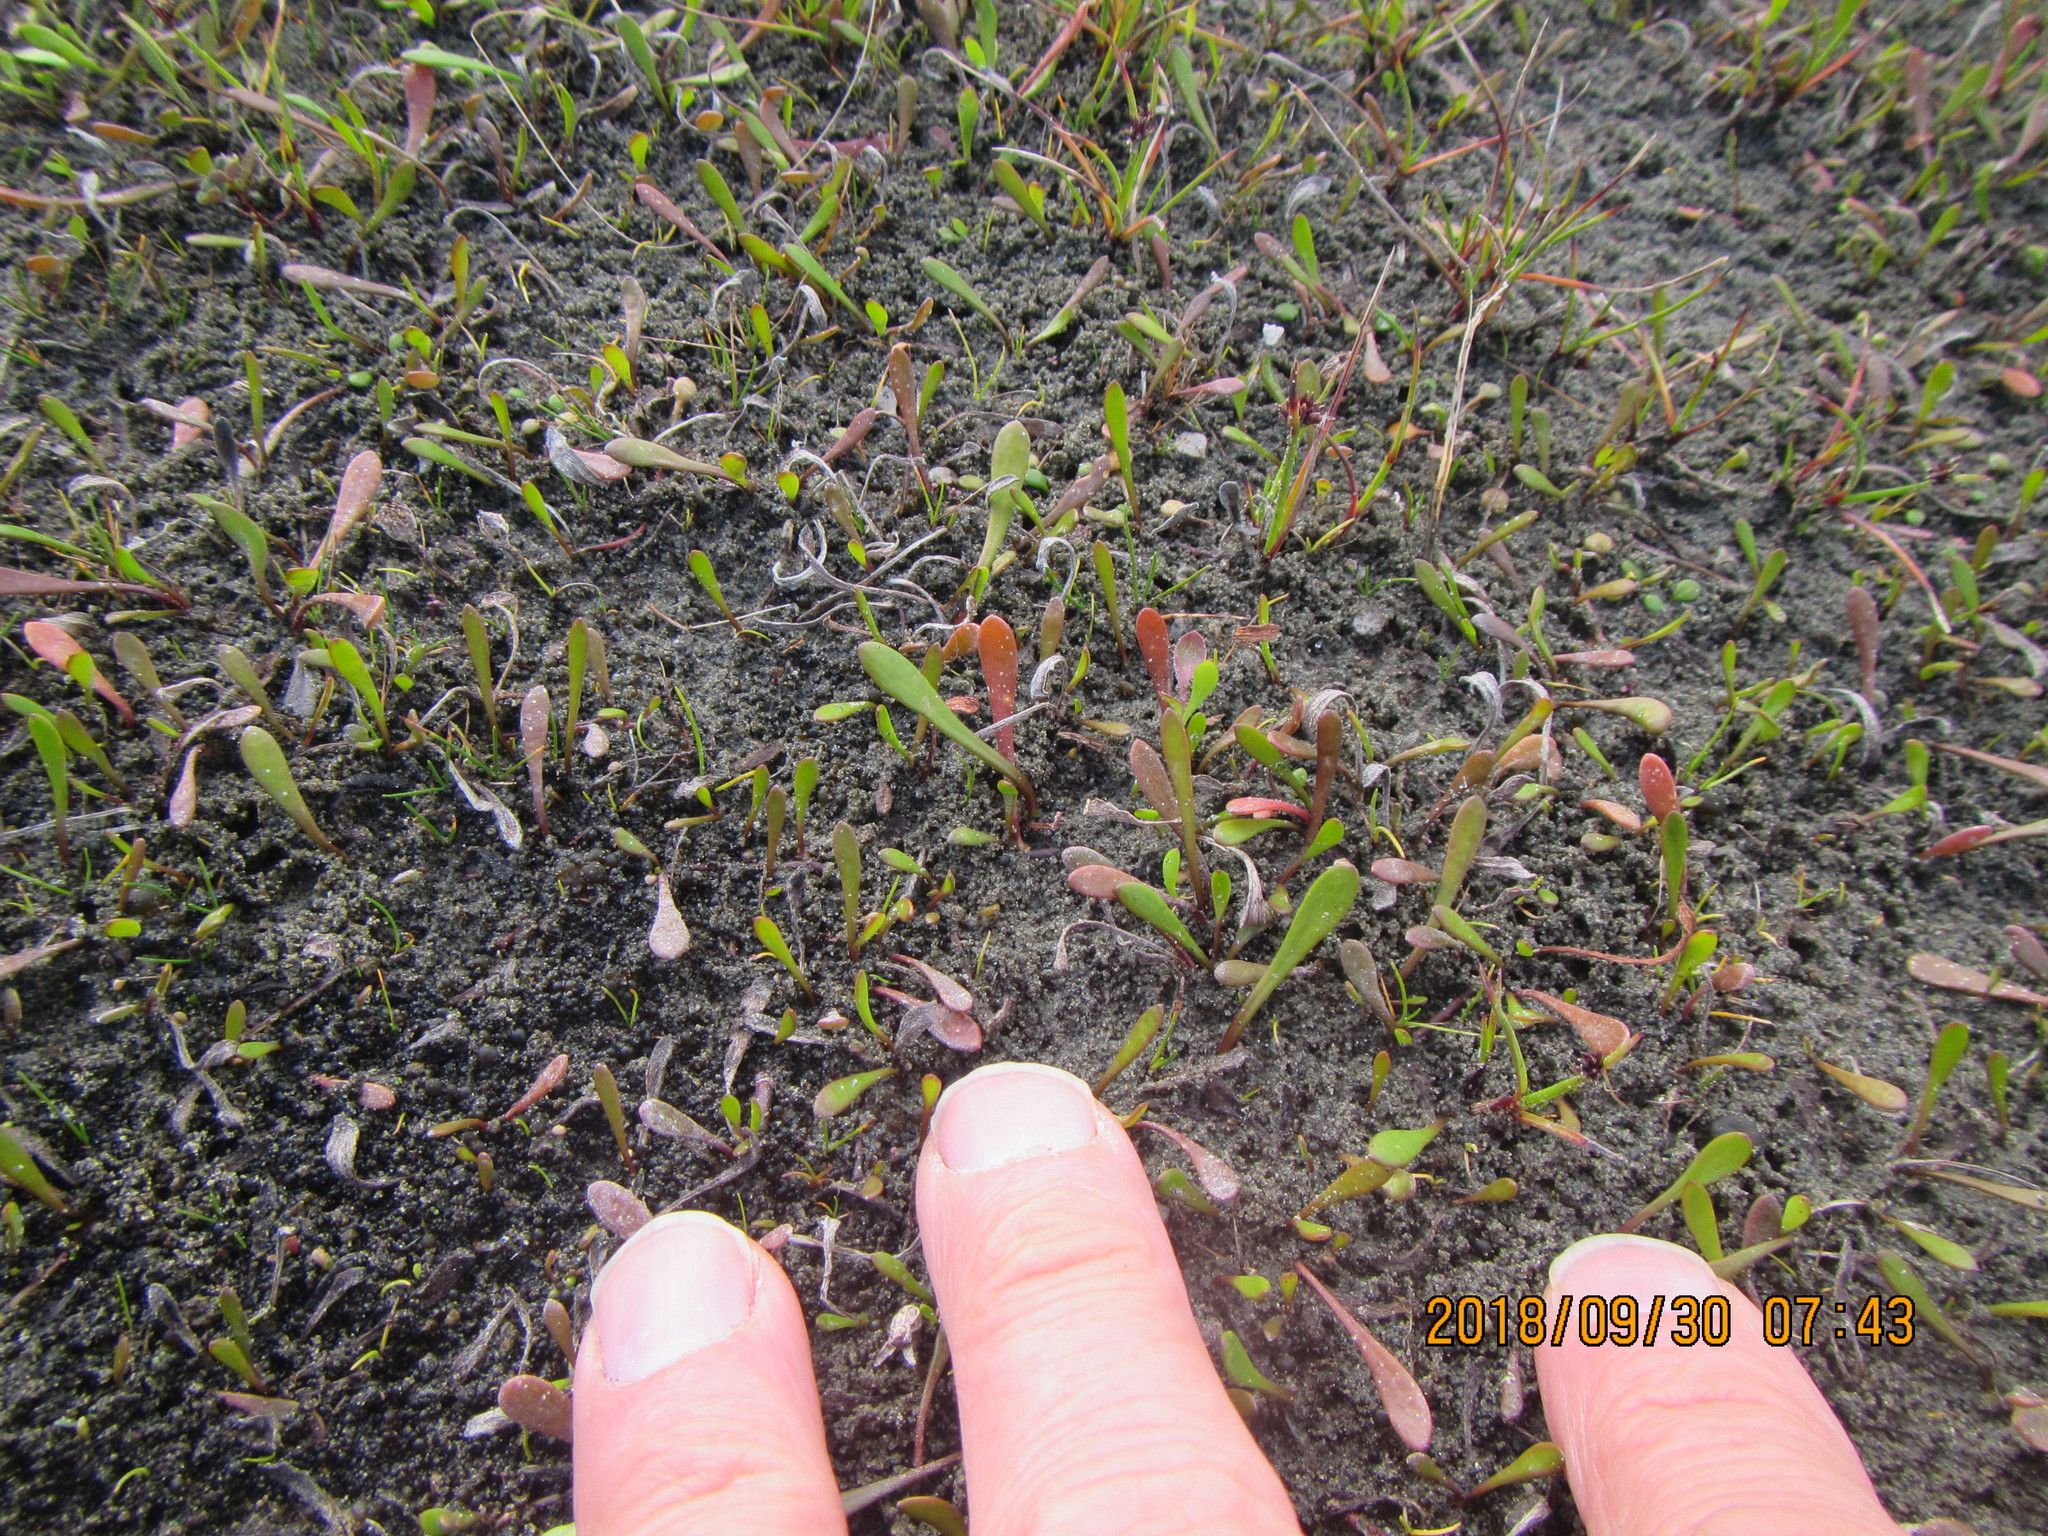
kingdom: Plantae
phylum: Tracheophyta
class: Magnoliopsida
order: Asterales
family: Goodeniaceae
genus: Goodenia
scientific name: Goodenia radicans
